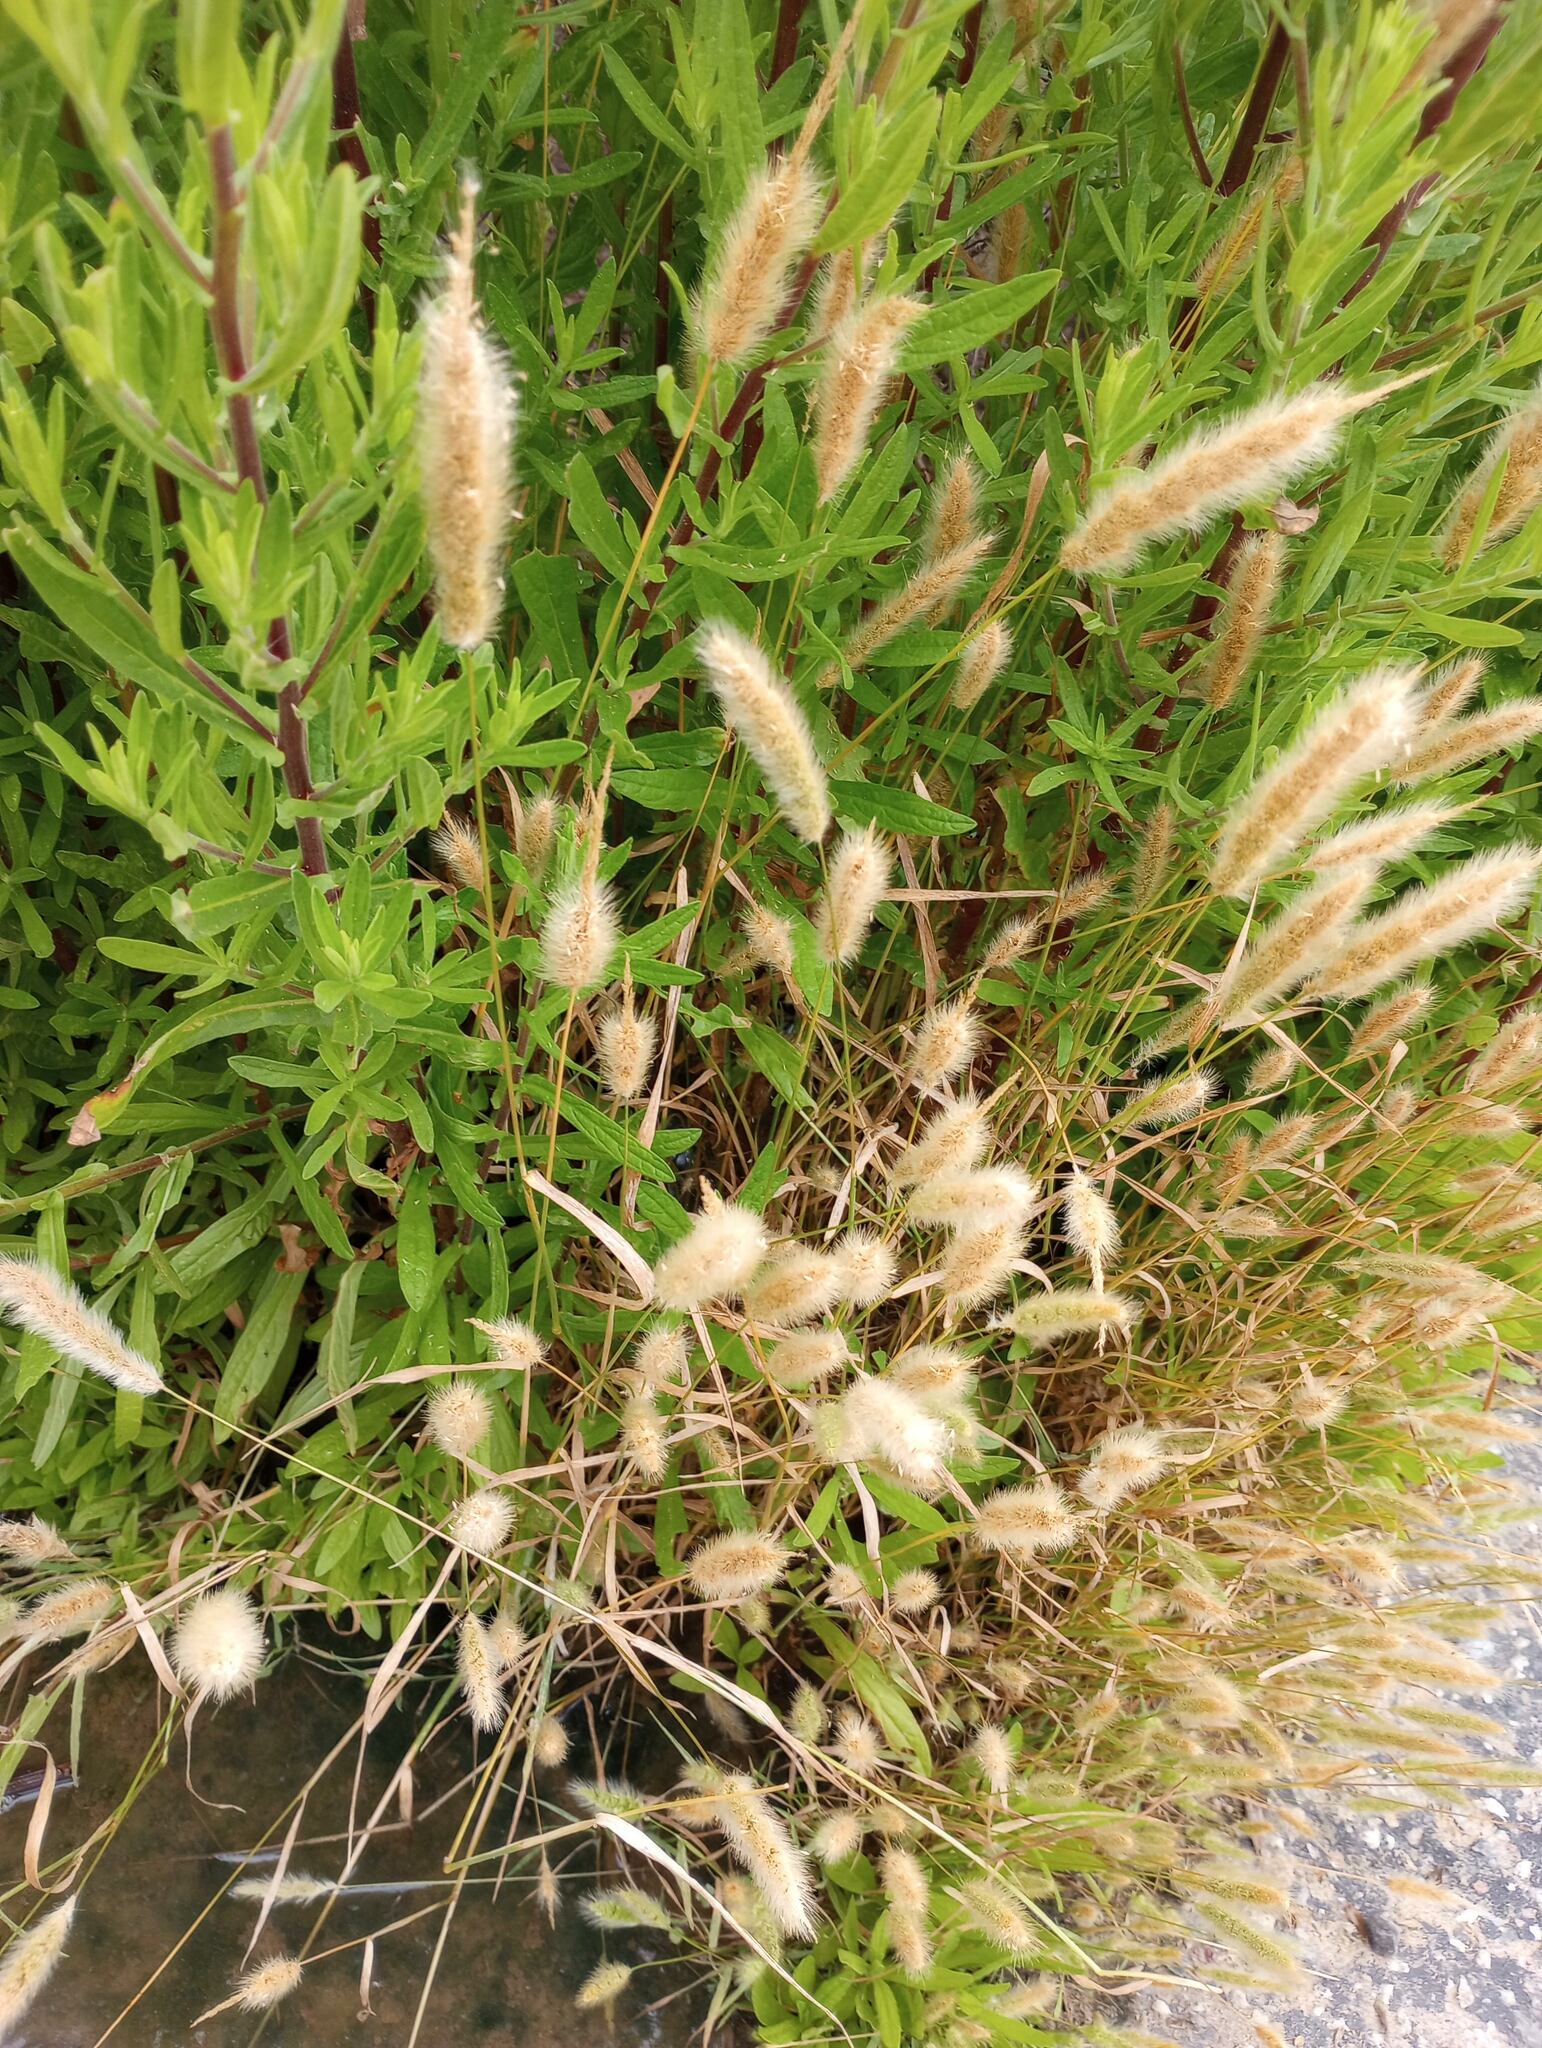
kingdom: Plantae
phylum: Tracheophyta
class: Liliopsida
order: Poales
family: Poaceae
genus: Polypogon
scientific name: Polypogon monspeliensis
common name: Annual rabbitsfoot grass
